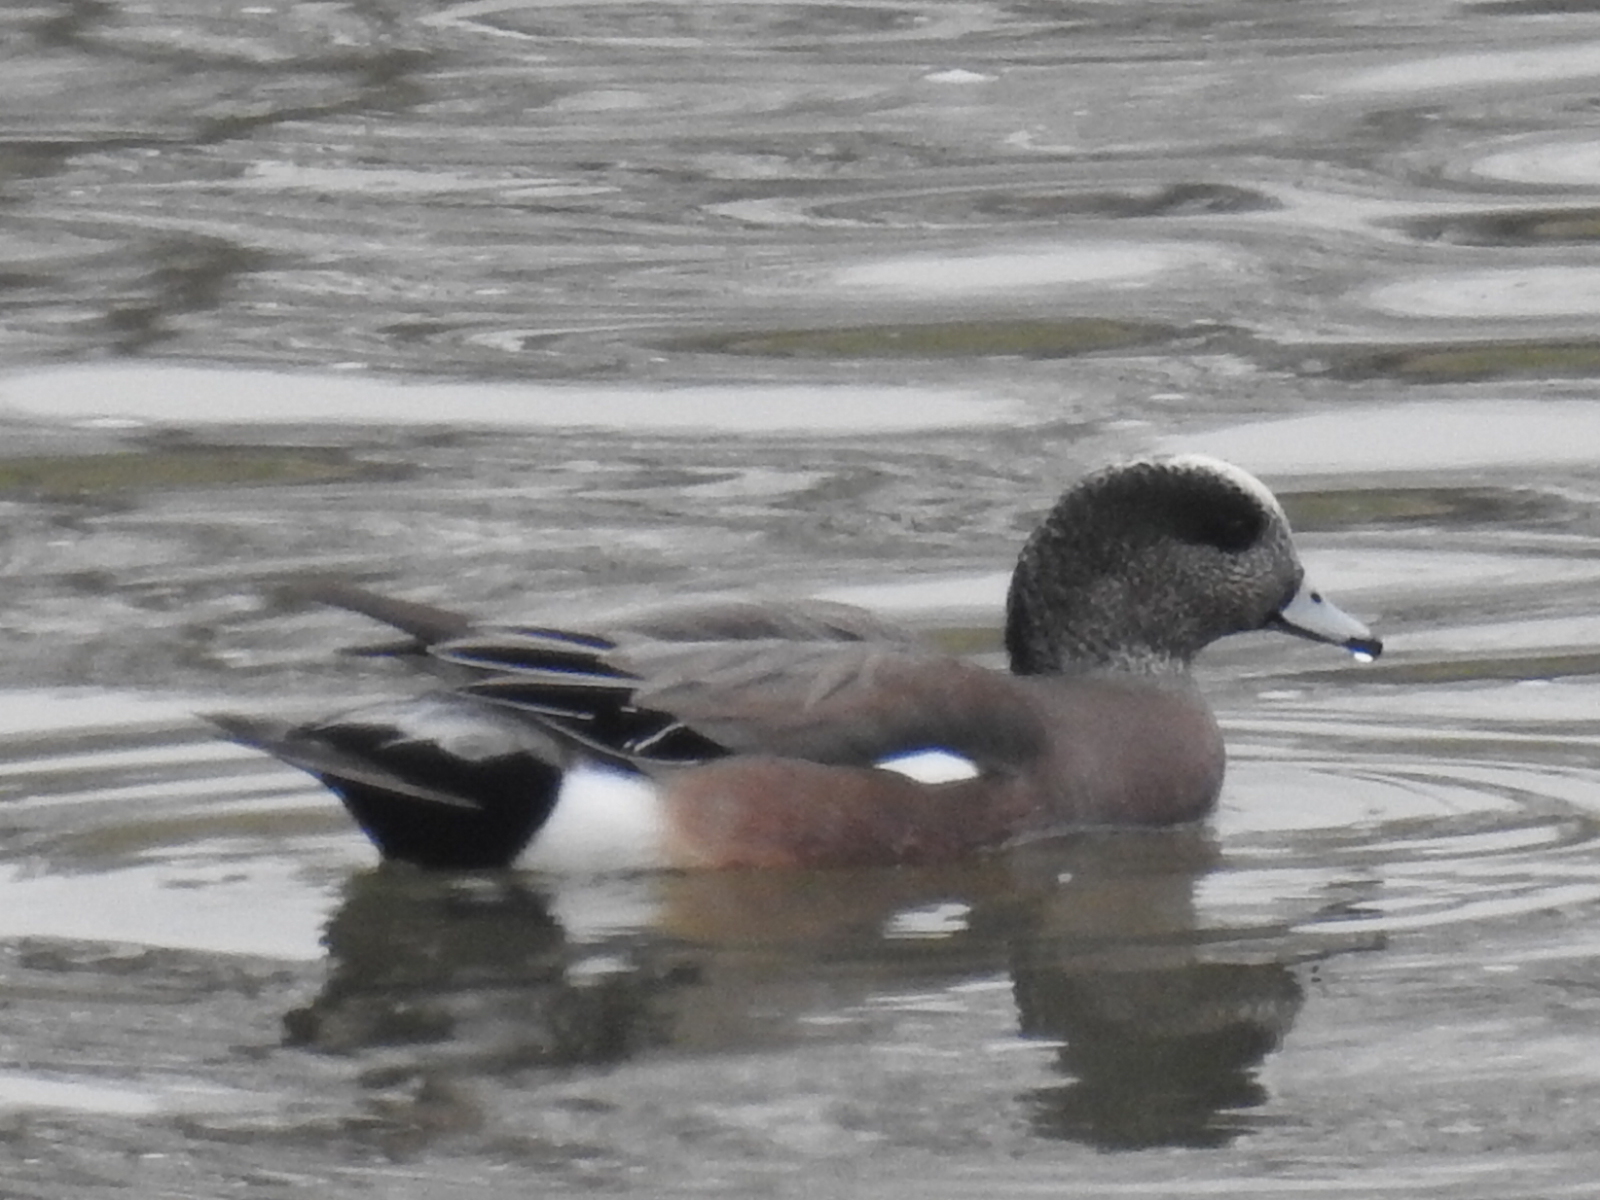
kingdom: Animalia
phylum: Chordata
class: Aves
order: Anseriformes
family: Anatidae
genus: Mareca
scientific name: Mareca americana
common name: American wigeon
